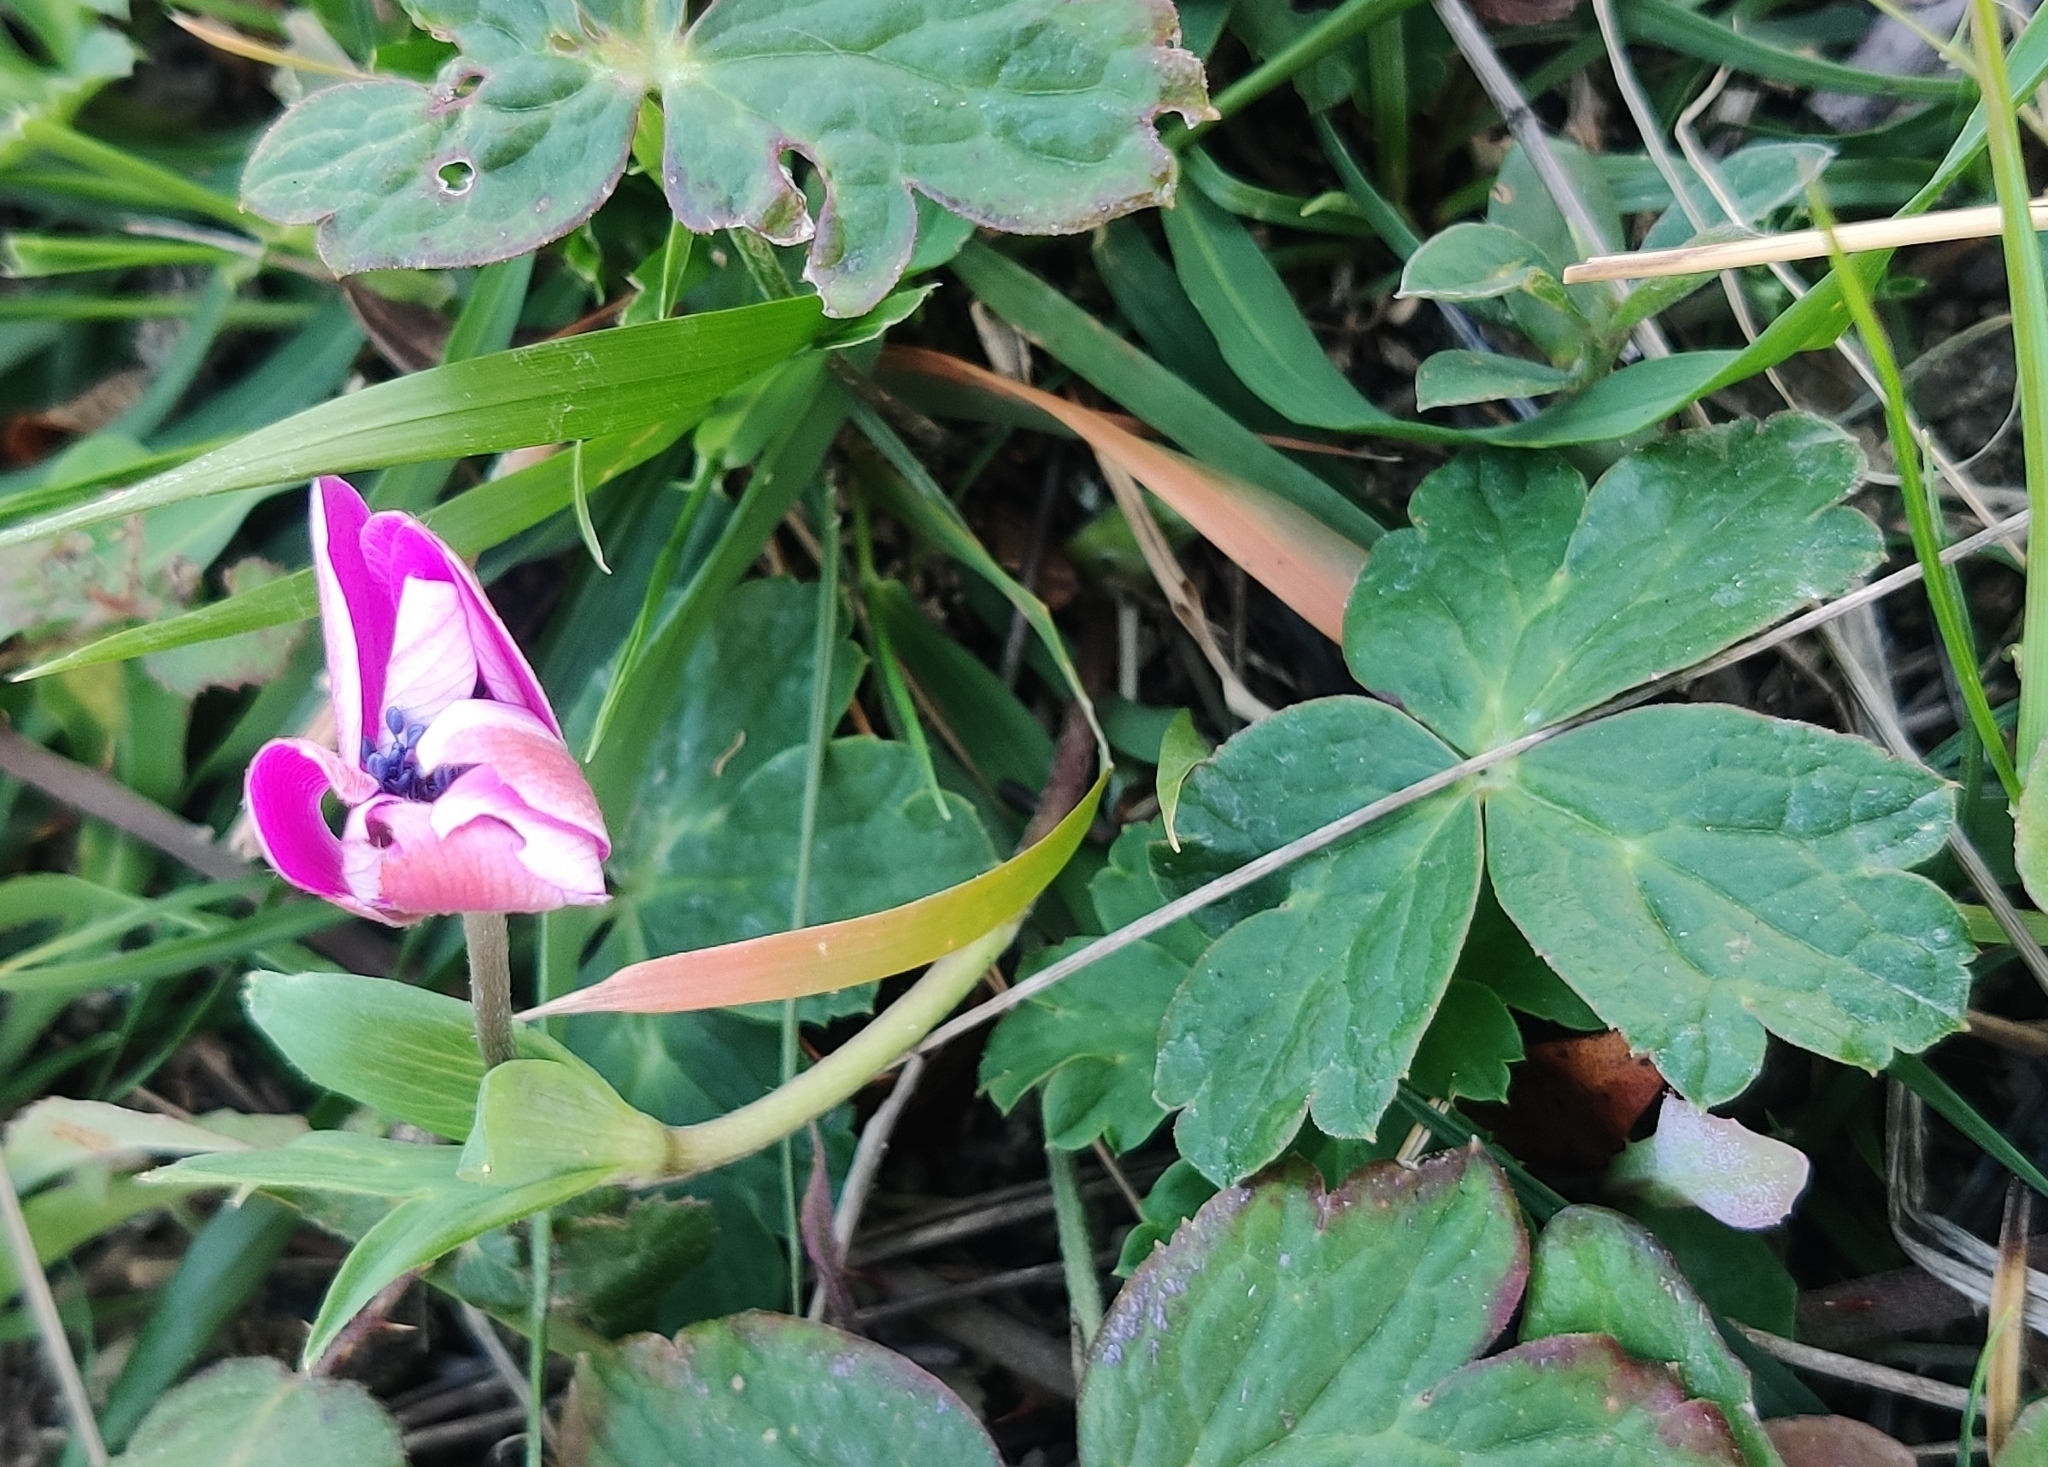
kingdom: Plantae
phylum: Tracheophyta
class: Magnoliopsida
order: Ranunculales
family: Ranunculaceae
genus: Anemone
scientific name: Anemone hortensis
